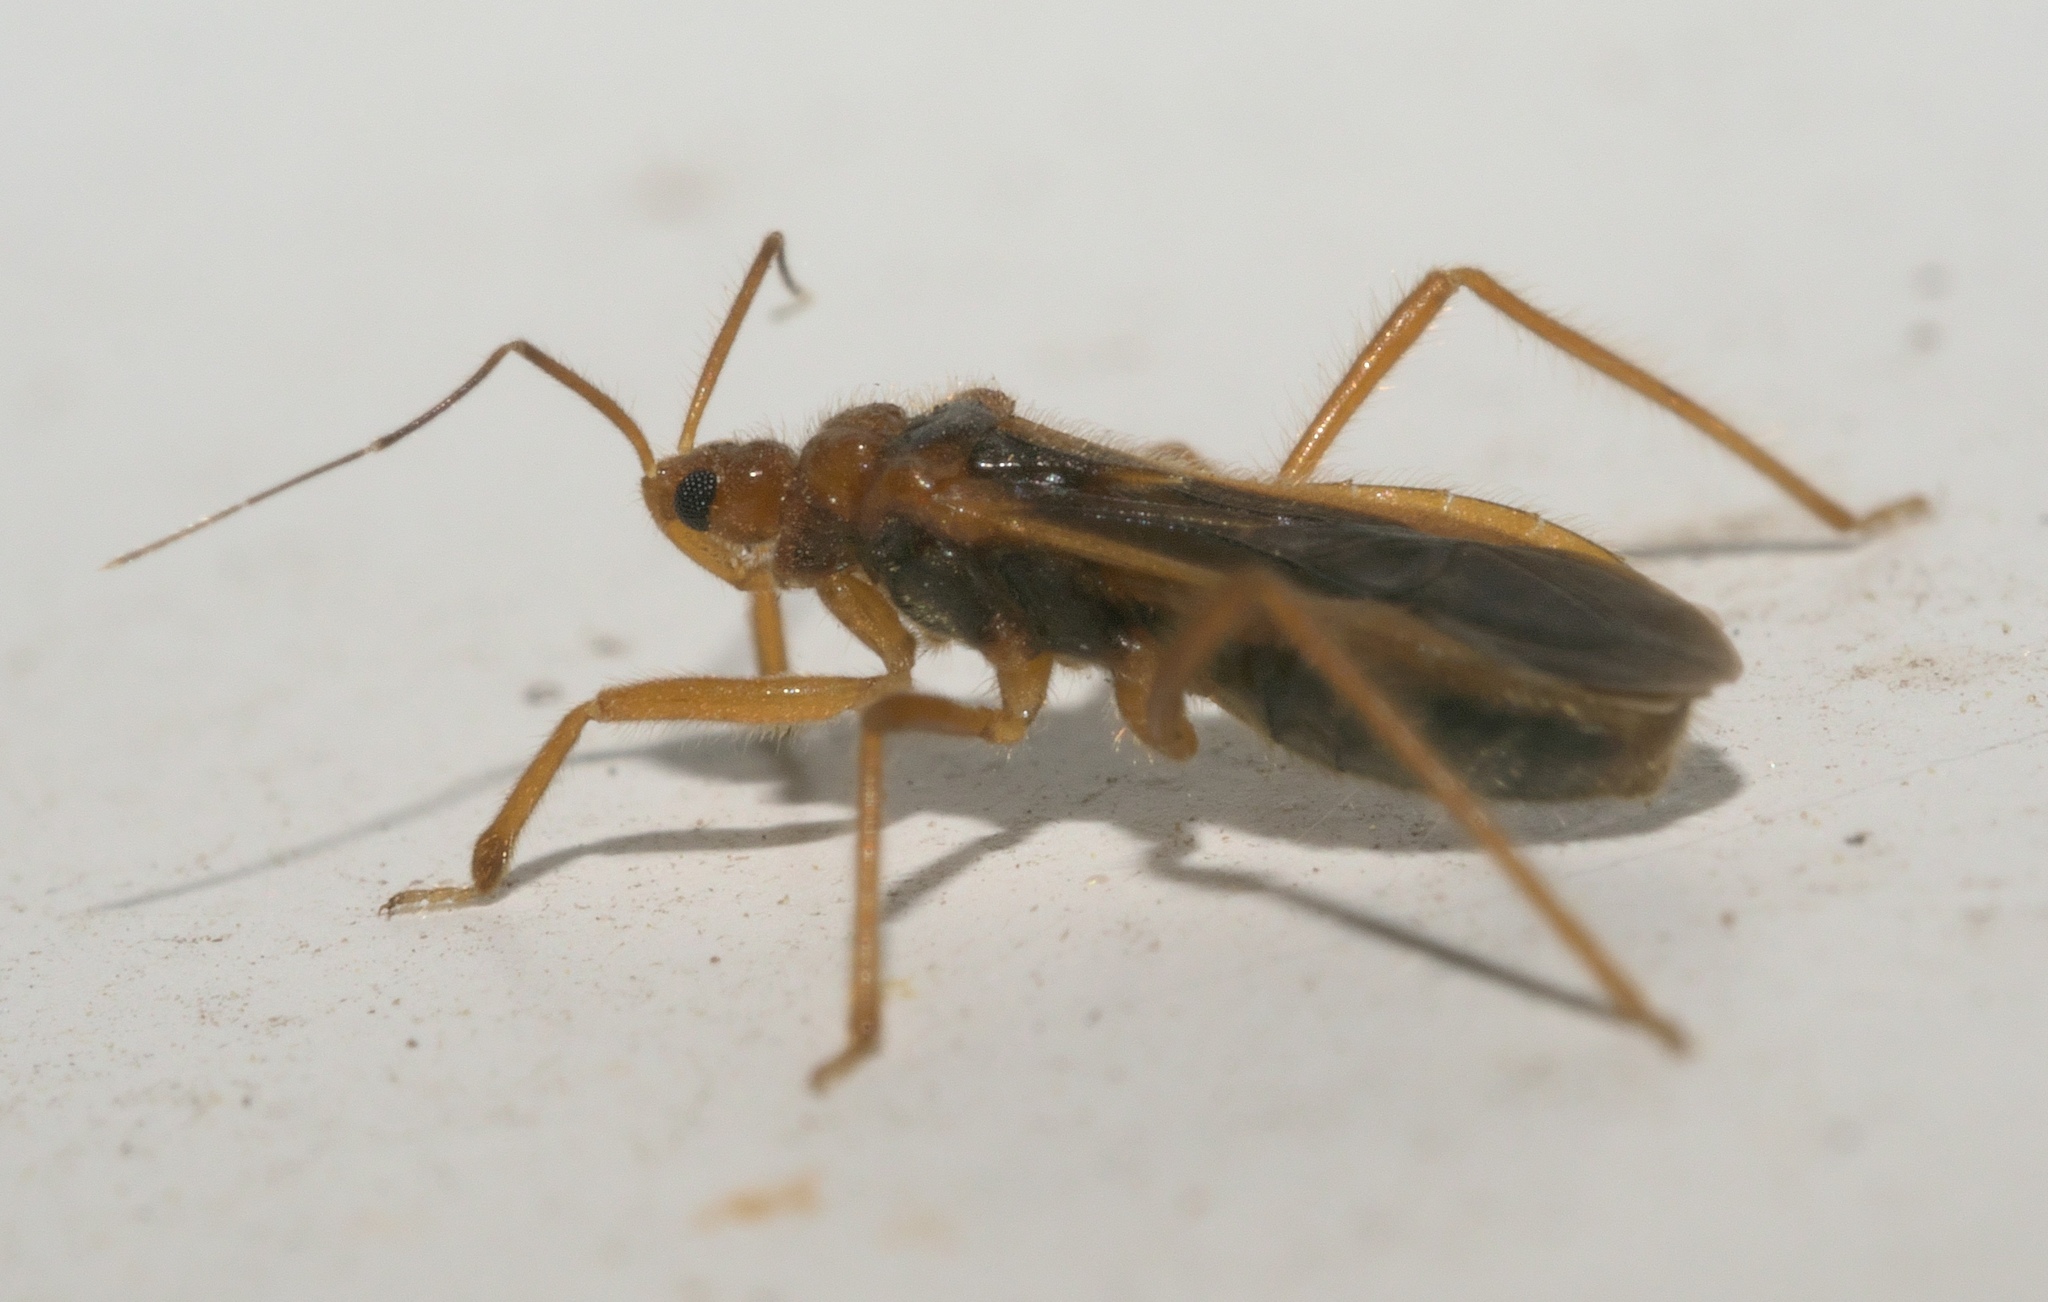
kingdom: Animalia
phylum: Arthropoda
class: Insecta
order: Hemiptera
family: Reduviidae
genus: Oncerotrachelus
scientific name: Oncerotrachelus acuminatus
